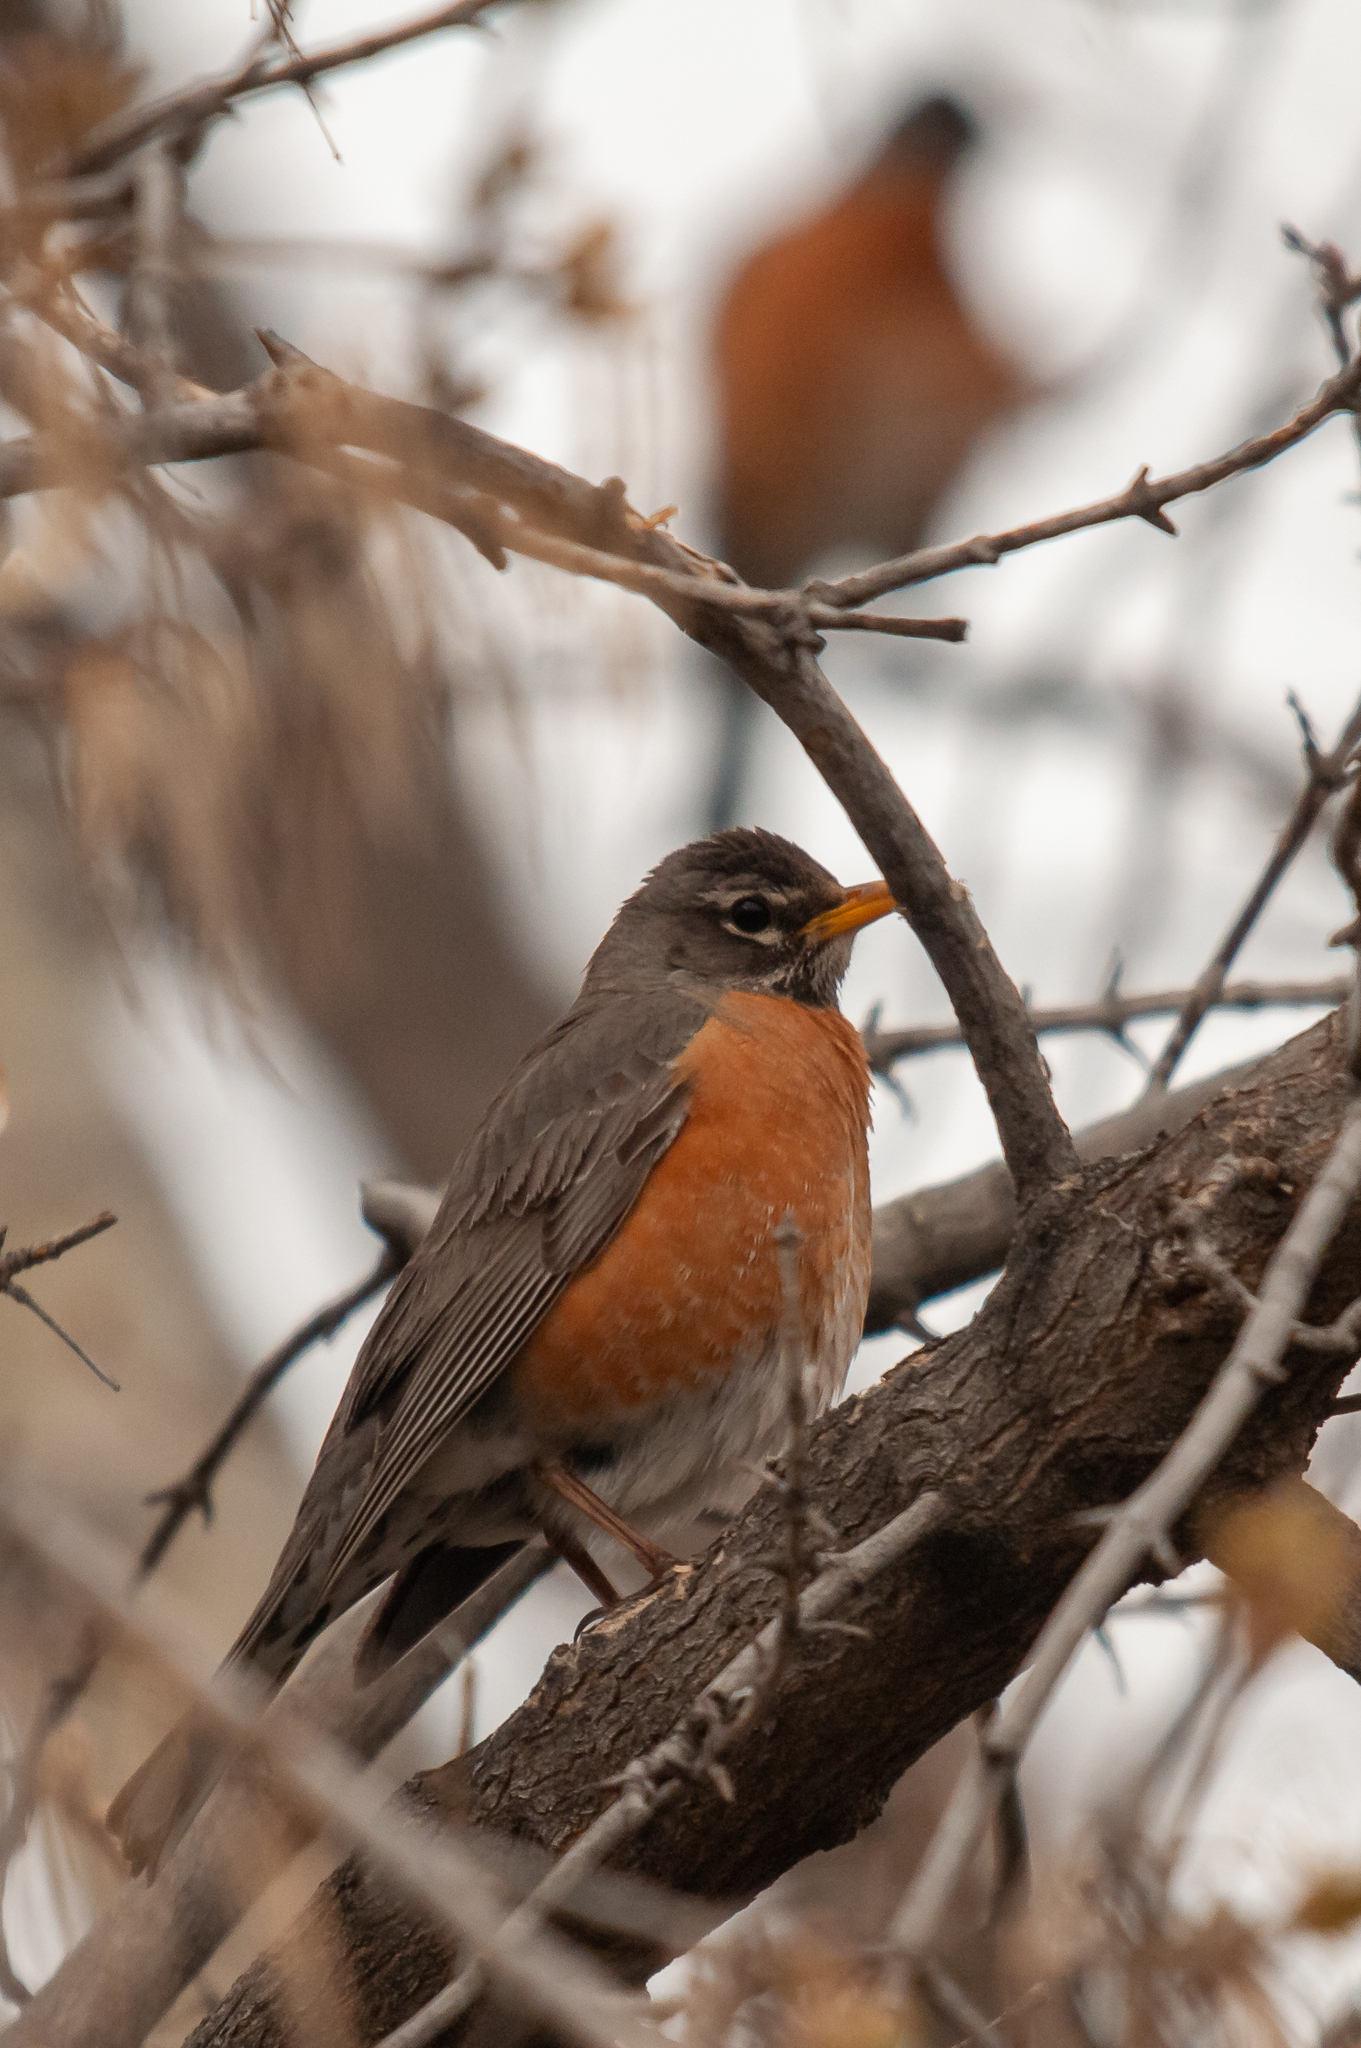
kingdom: Animalia
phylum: Chordata
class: Aves
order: Passeriformes
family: Turdidae
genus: Turdus
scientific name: Turdus migratorius
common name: American robin
